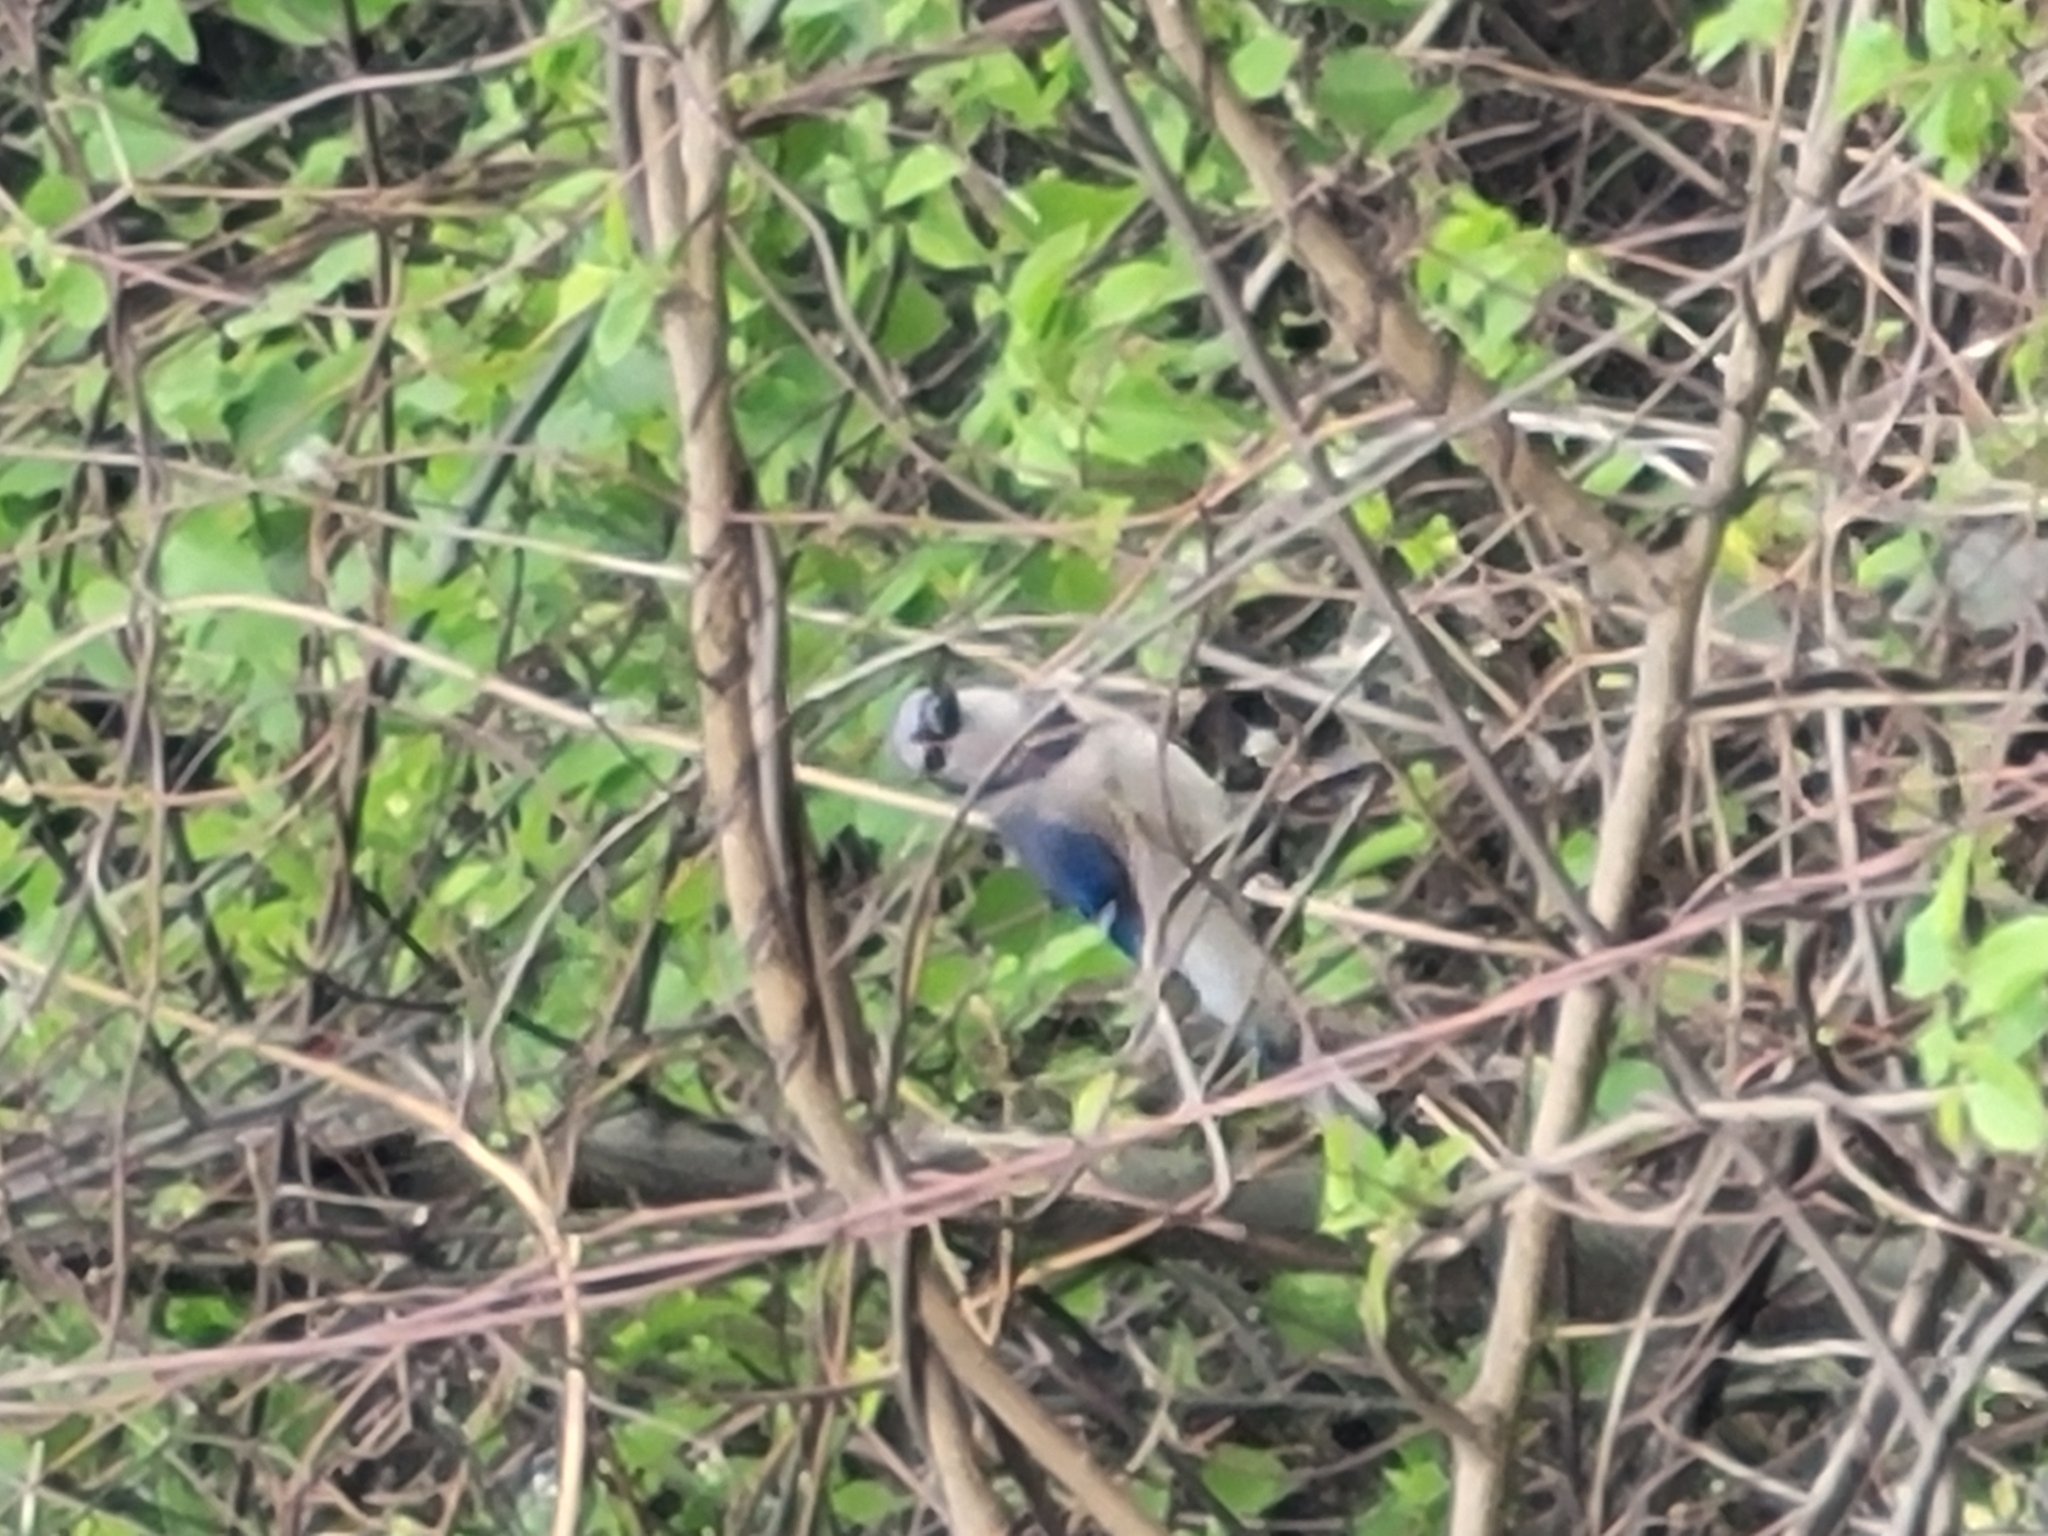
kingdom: Animalia
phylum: Chordata
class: Aves
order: Passeriformes
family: Corvidae
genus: Cyanocitta
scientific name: Cyanocitta cristata
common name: Blue jay
